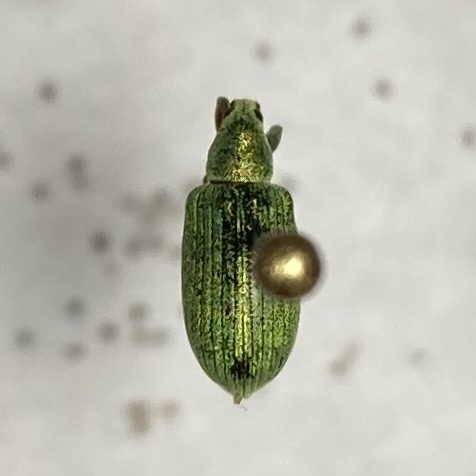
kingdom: Animalia
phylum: Arthropoda
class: Insecta
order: Coleoptera
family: Curculionidae
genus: Polydrusus
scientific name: Polydrusus formosus
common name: Weevil
